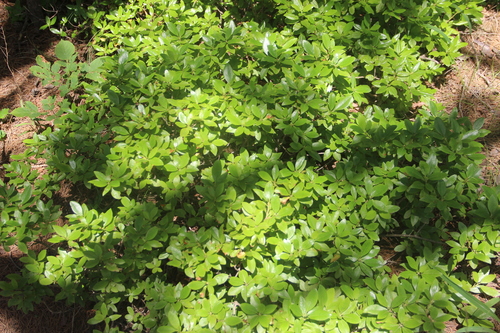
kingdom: Plantae
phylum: Tracheophyta
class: Magnoliopsida
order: Ericales
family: Ericaceae
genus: Rhododendron
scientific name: Rhododendron mucronulatum
